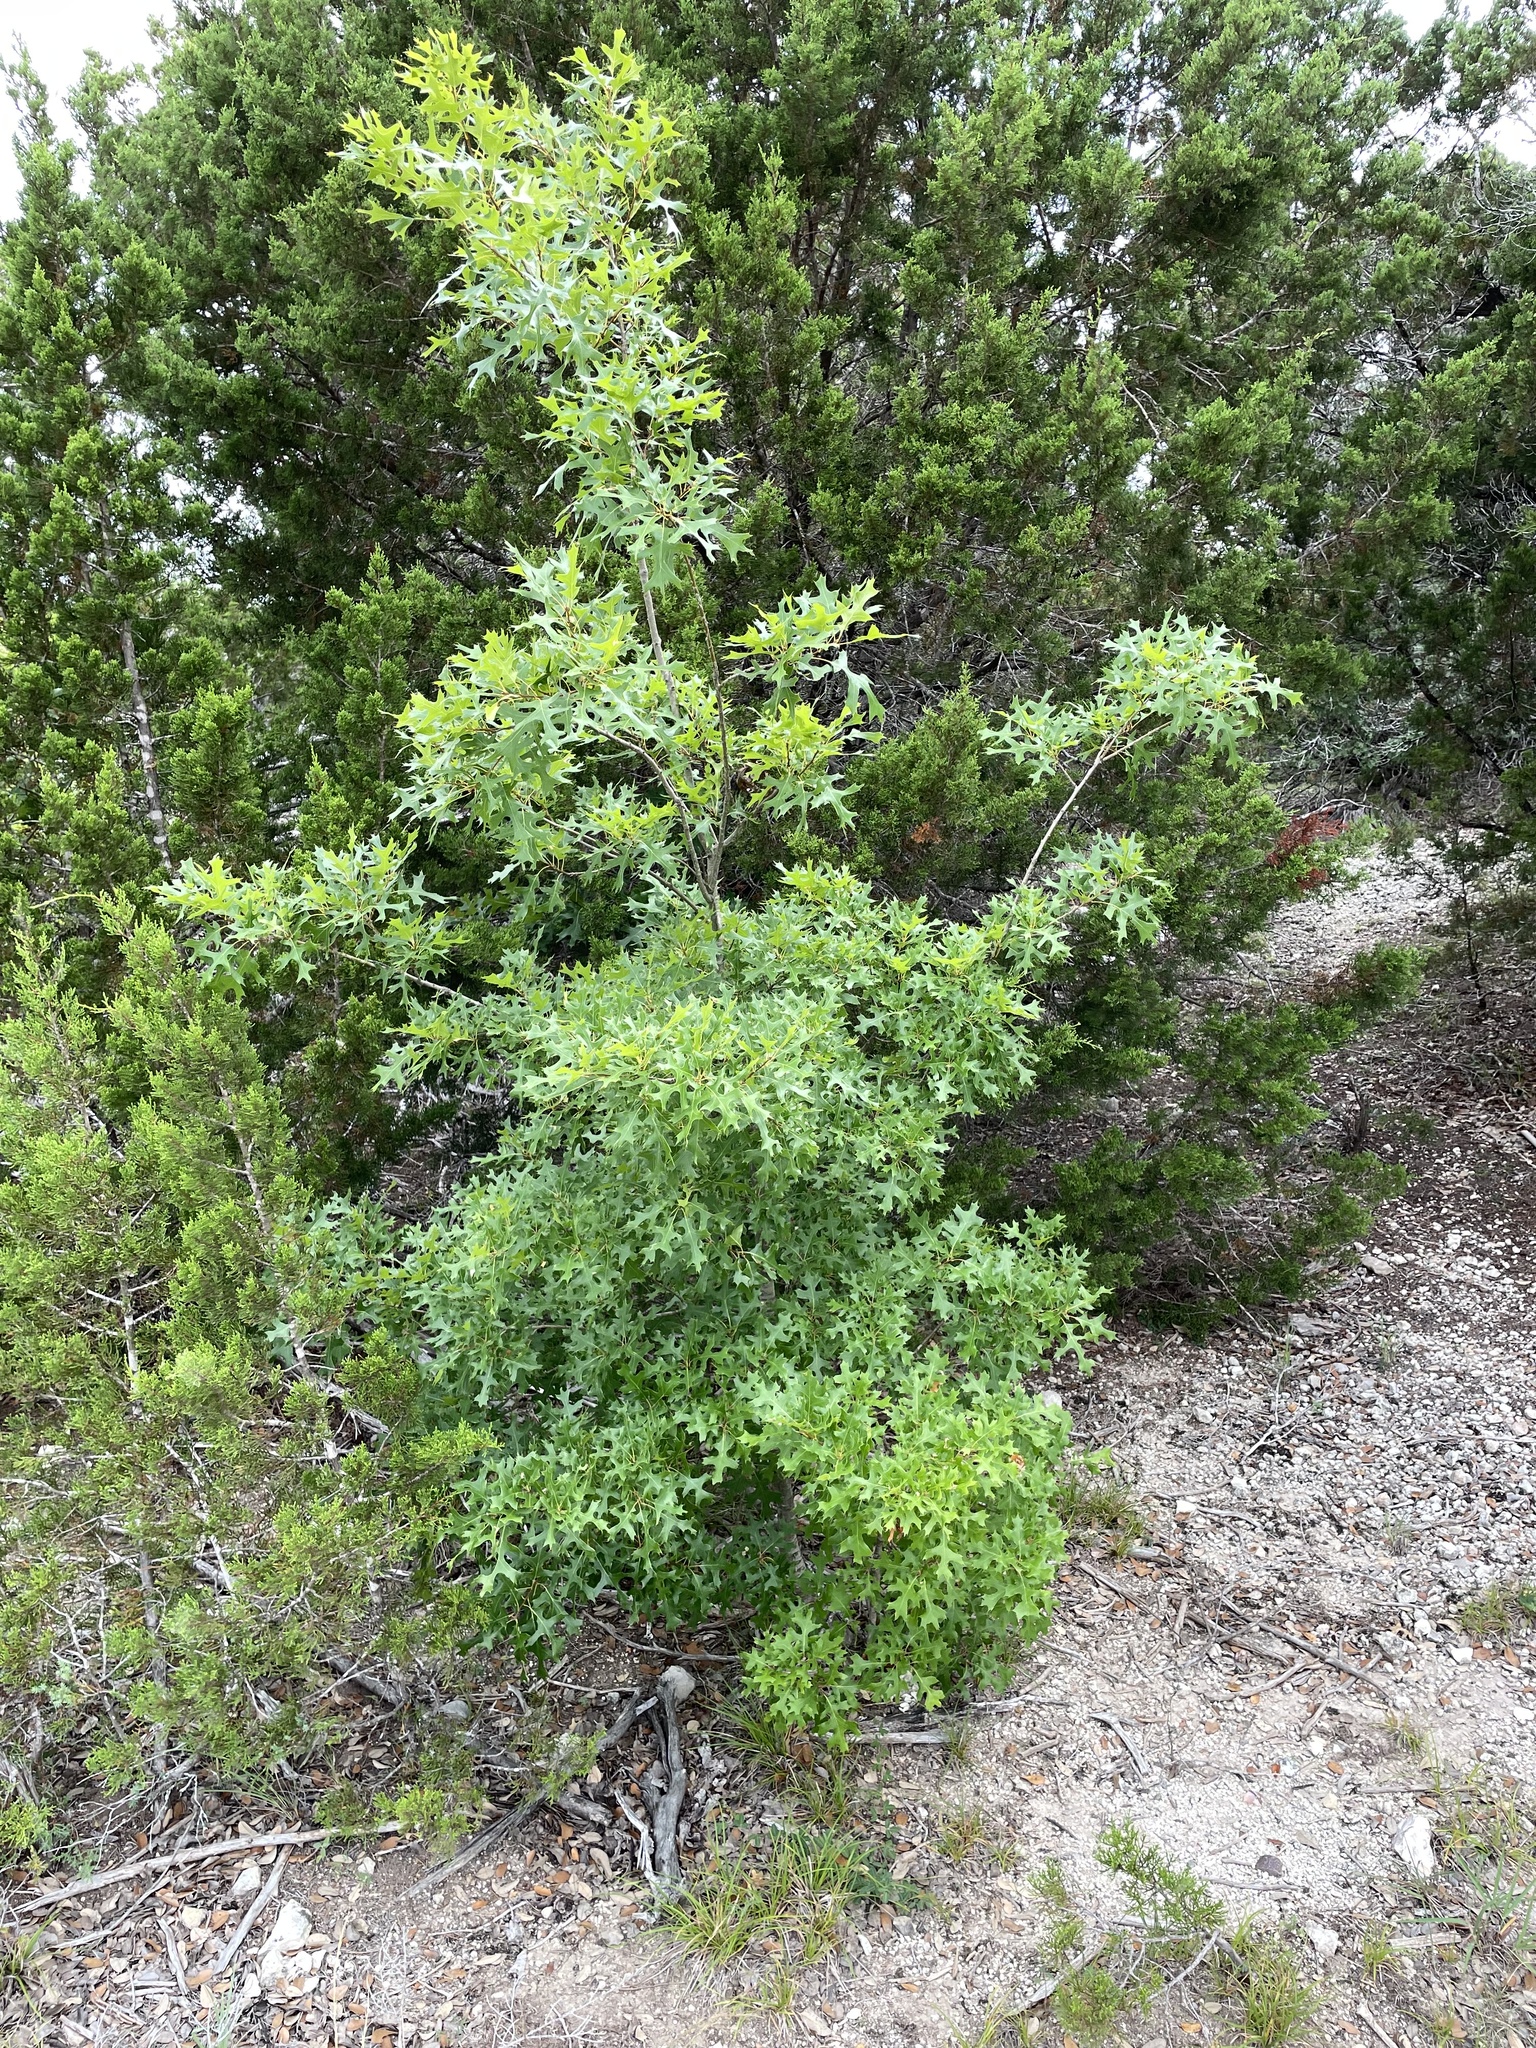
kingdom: Plantae
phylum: Tracheophyta
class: Magnoliopsida
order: Fagales
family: Fagaceae
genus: Quercus
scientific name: Quercus buckleyi
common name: Buckley oak
